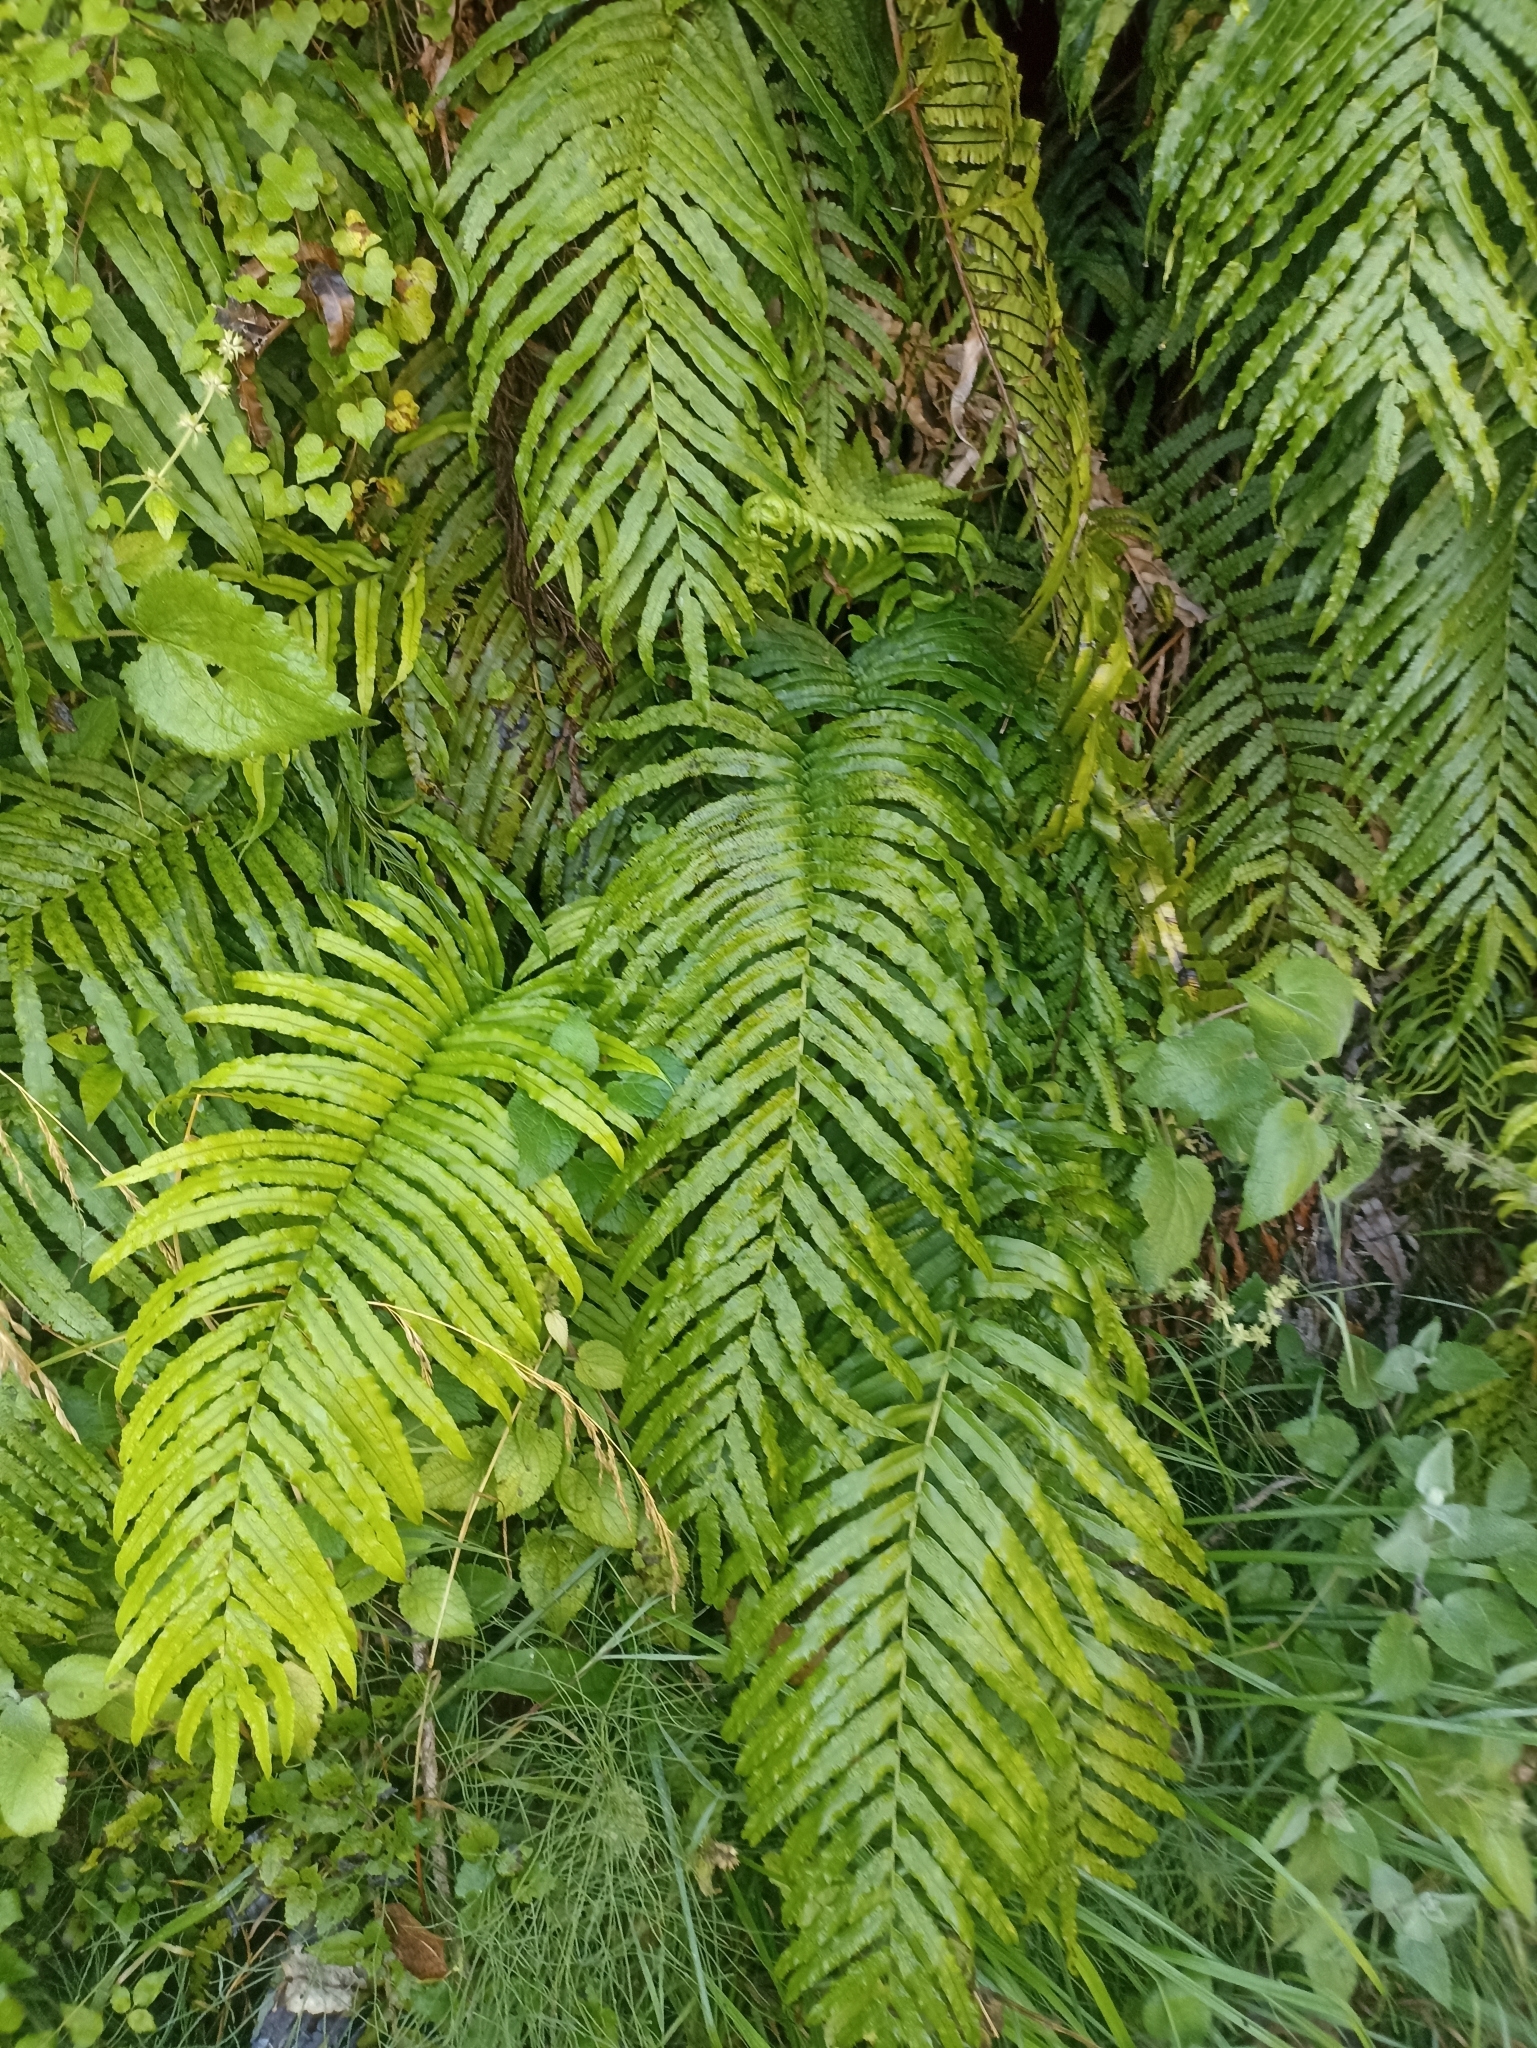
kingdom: Plantae
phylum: Tracheophyta
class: Polypodiopsida
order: Polypodiales
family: Blechnaceae
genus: Parablechnum
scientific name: Parablechnum triangularifolium
